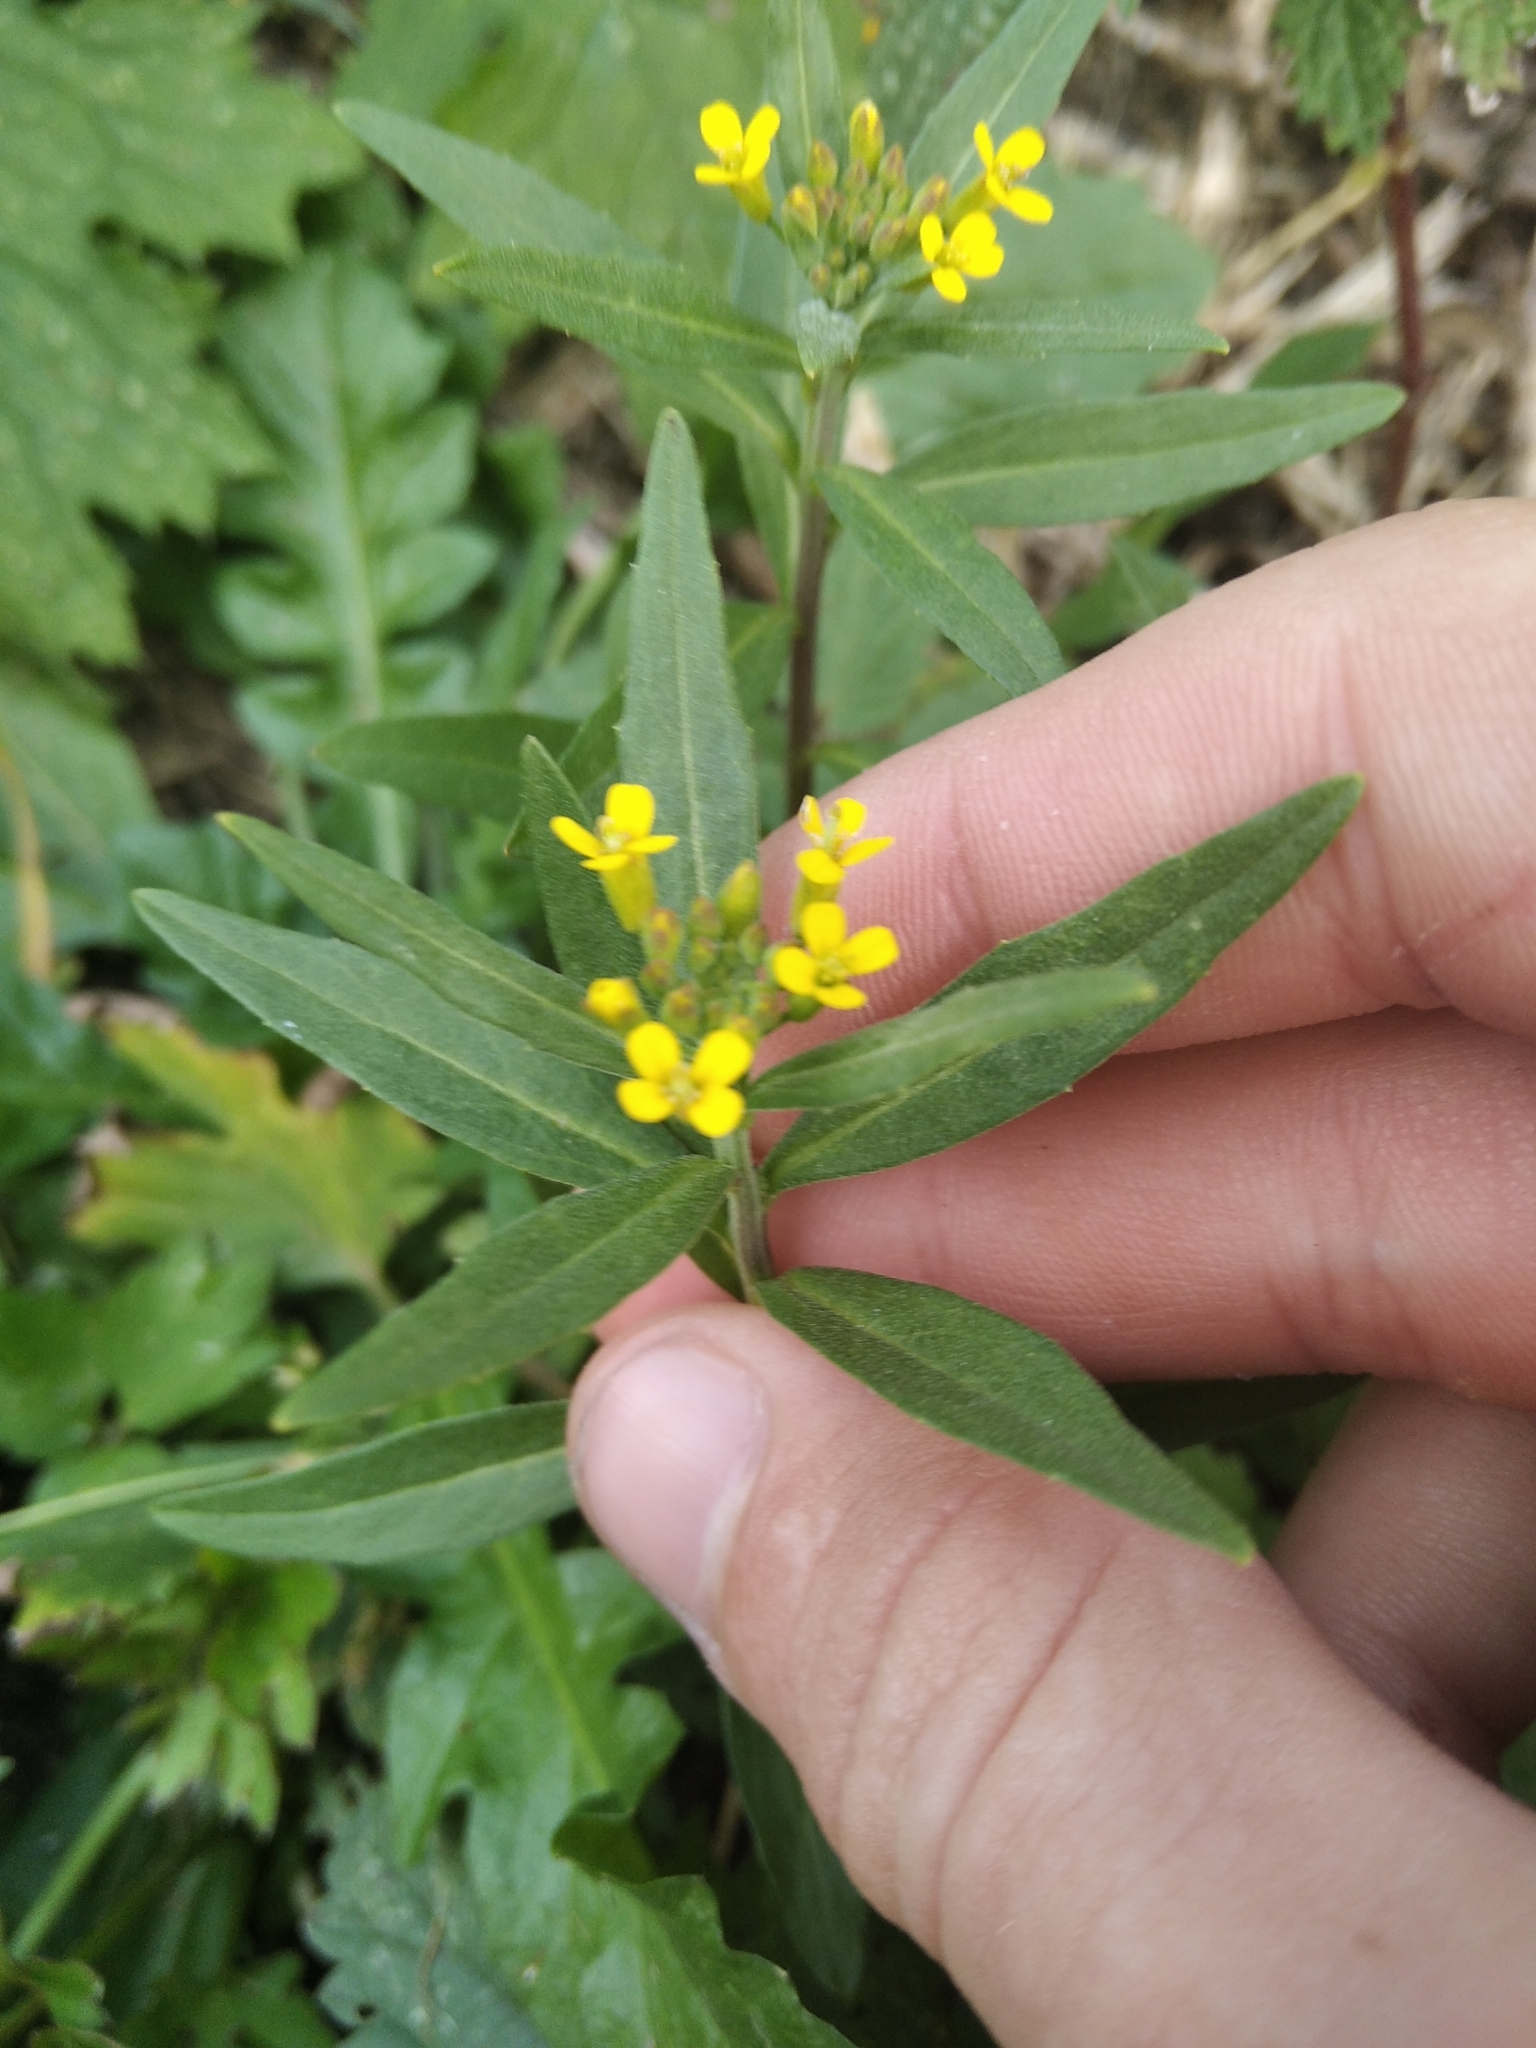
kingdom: Plantae
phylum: Tracheophyta
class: Magnoliopsida
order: Brassicales
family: Brassicaceae
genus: Erysimum
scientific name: Erysimum cheiranthoides
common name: Treacle mustard
